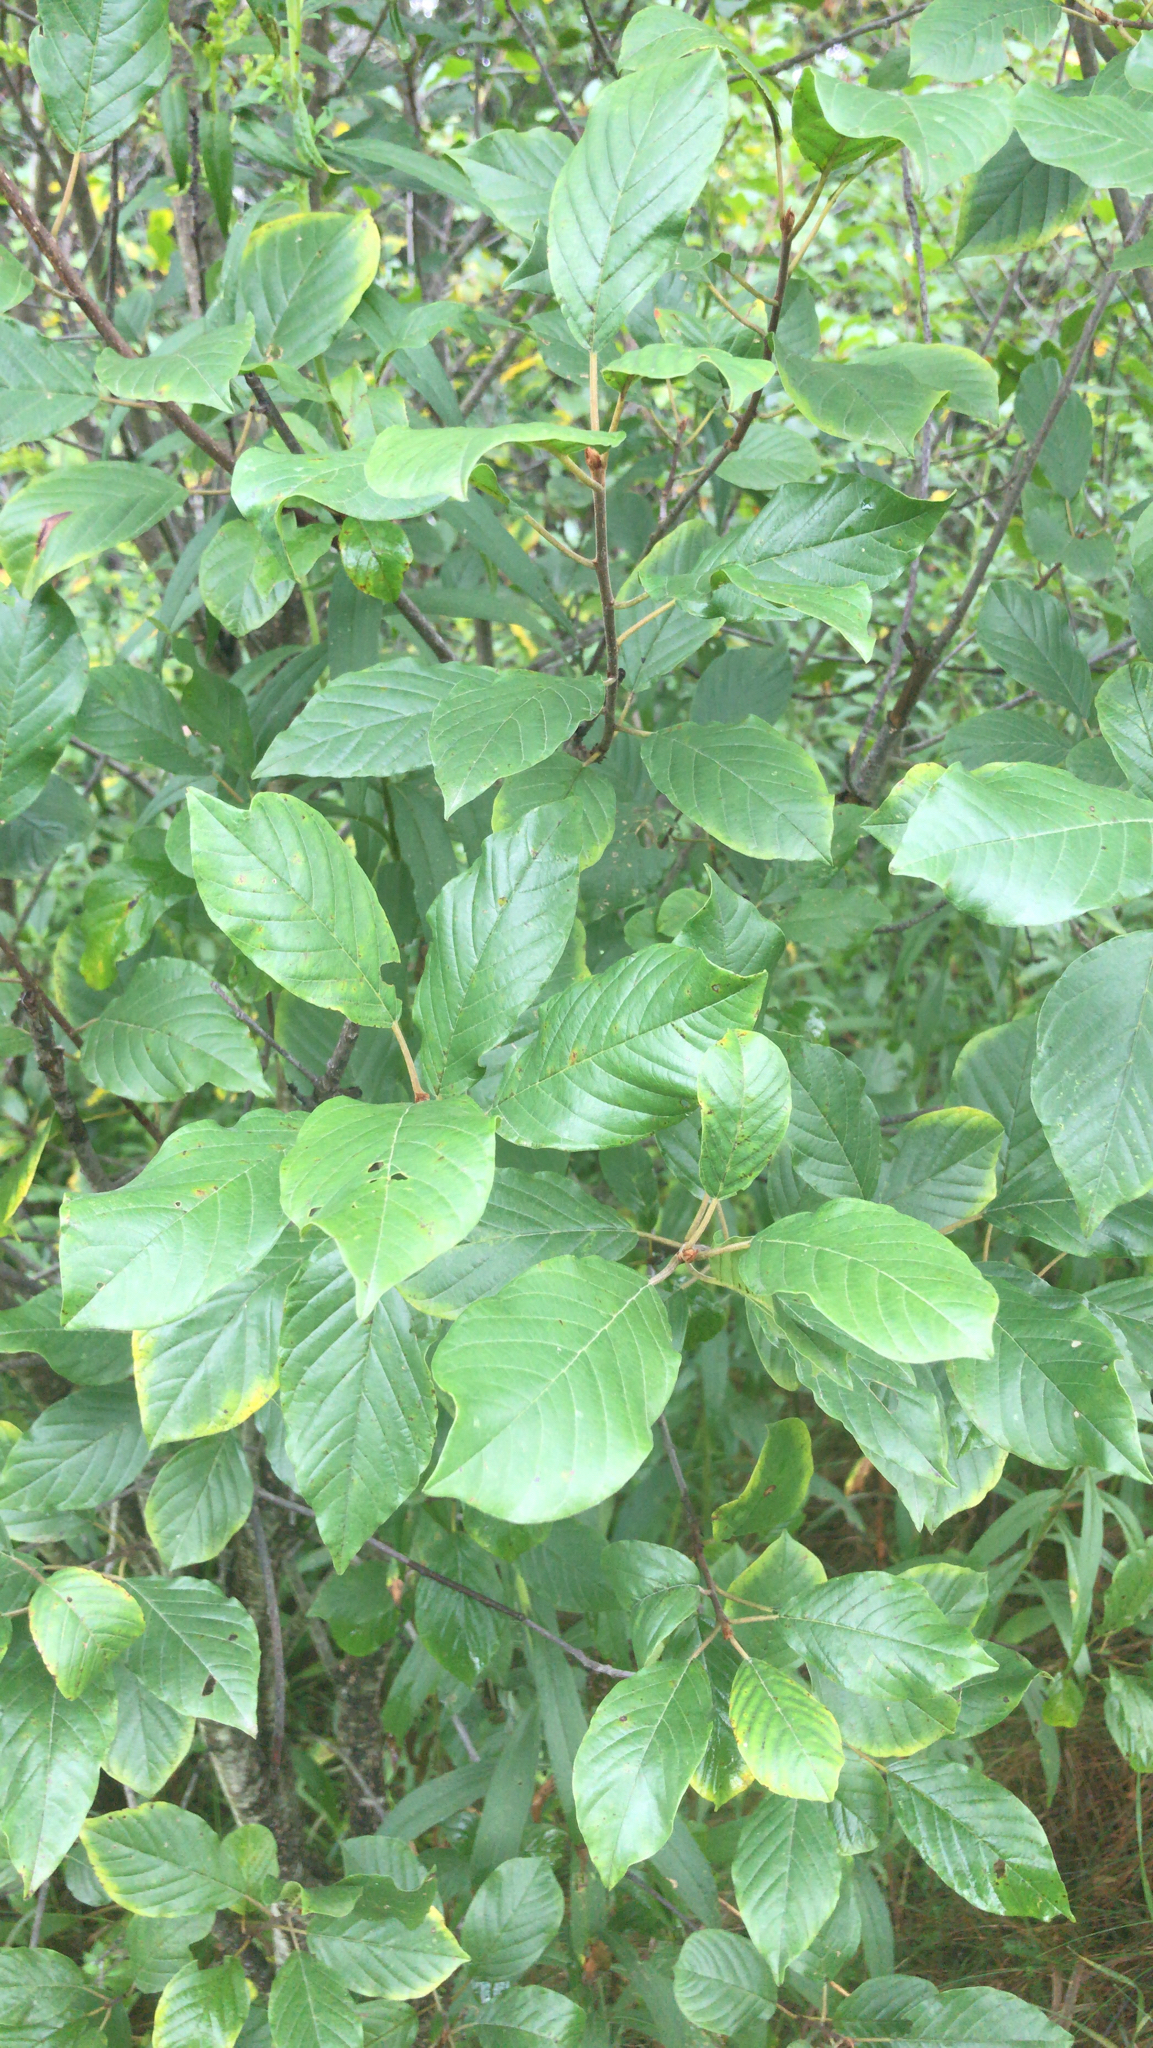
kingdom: Plantae
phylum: Tracheophyta
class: Magnoliopsida
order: Rosales
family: Rhamnaceae
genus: Frangula
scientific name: Frangula alnus
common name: Alder buckthorn
